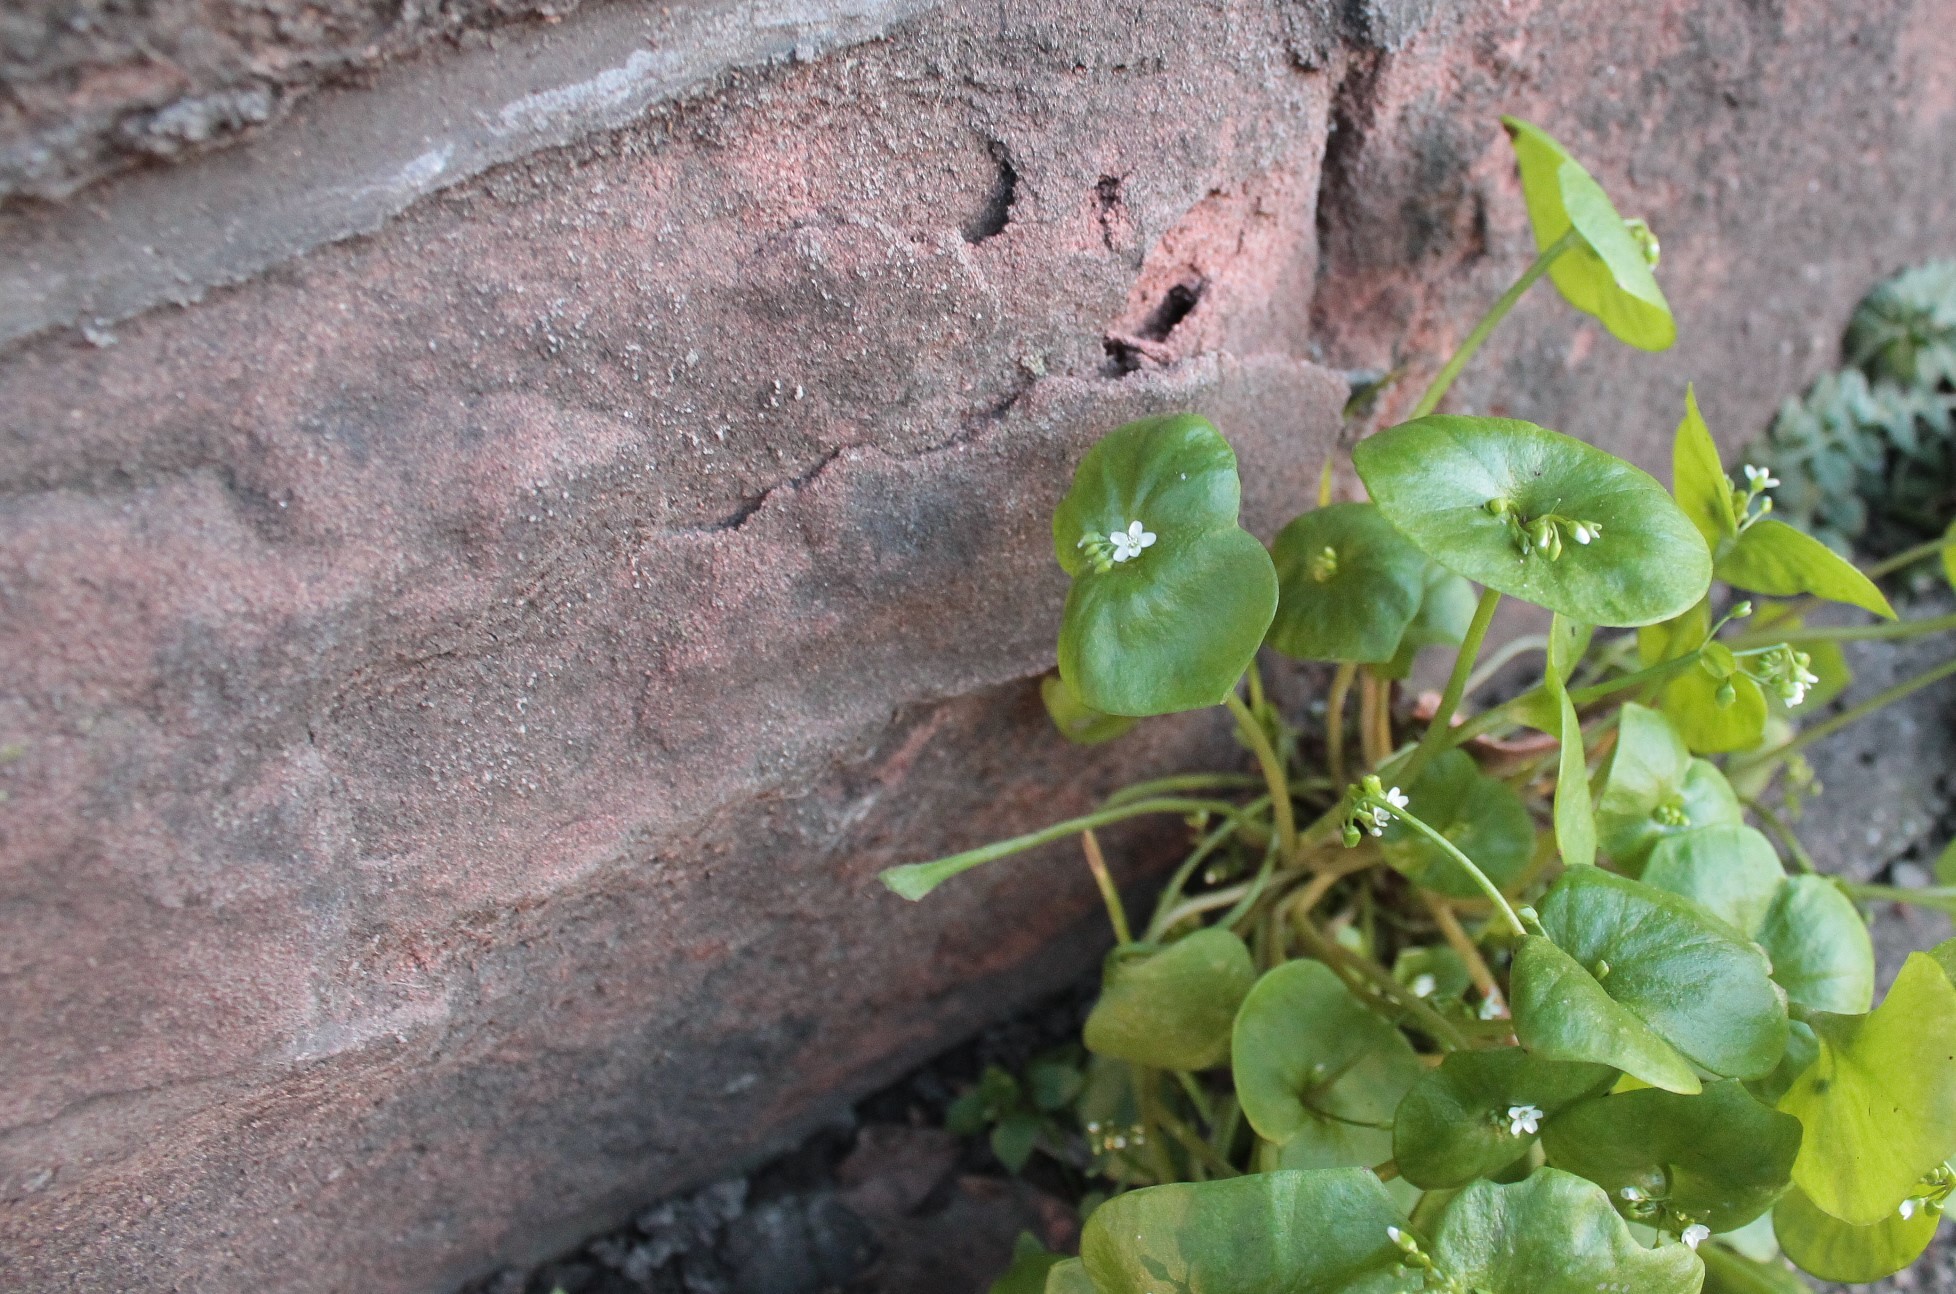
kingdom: Plantae
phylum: Tracheophyta
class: Magnoliopsida
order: Caryophyllales
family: Montiaceae
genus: Claytonia
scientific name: Claytonia perfoliata
